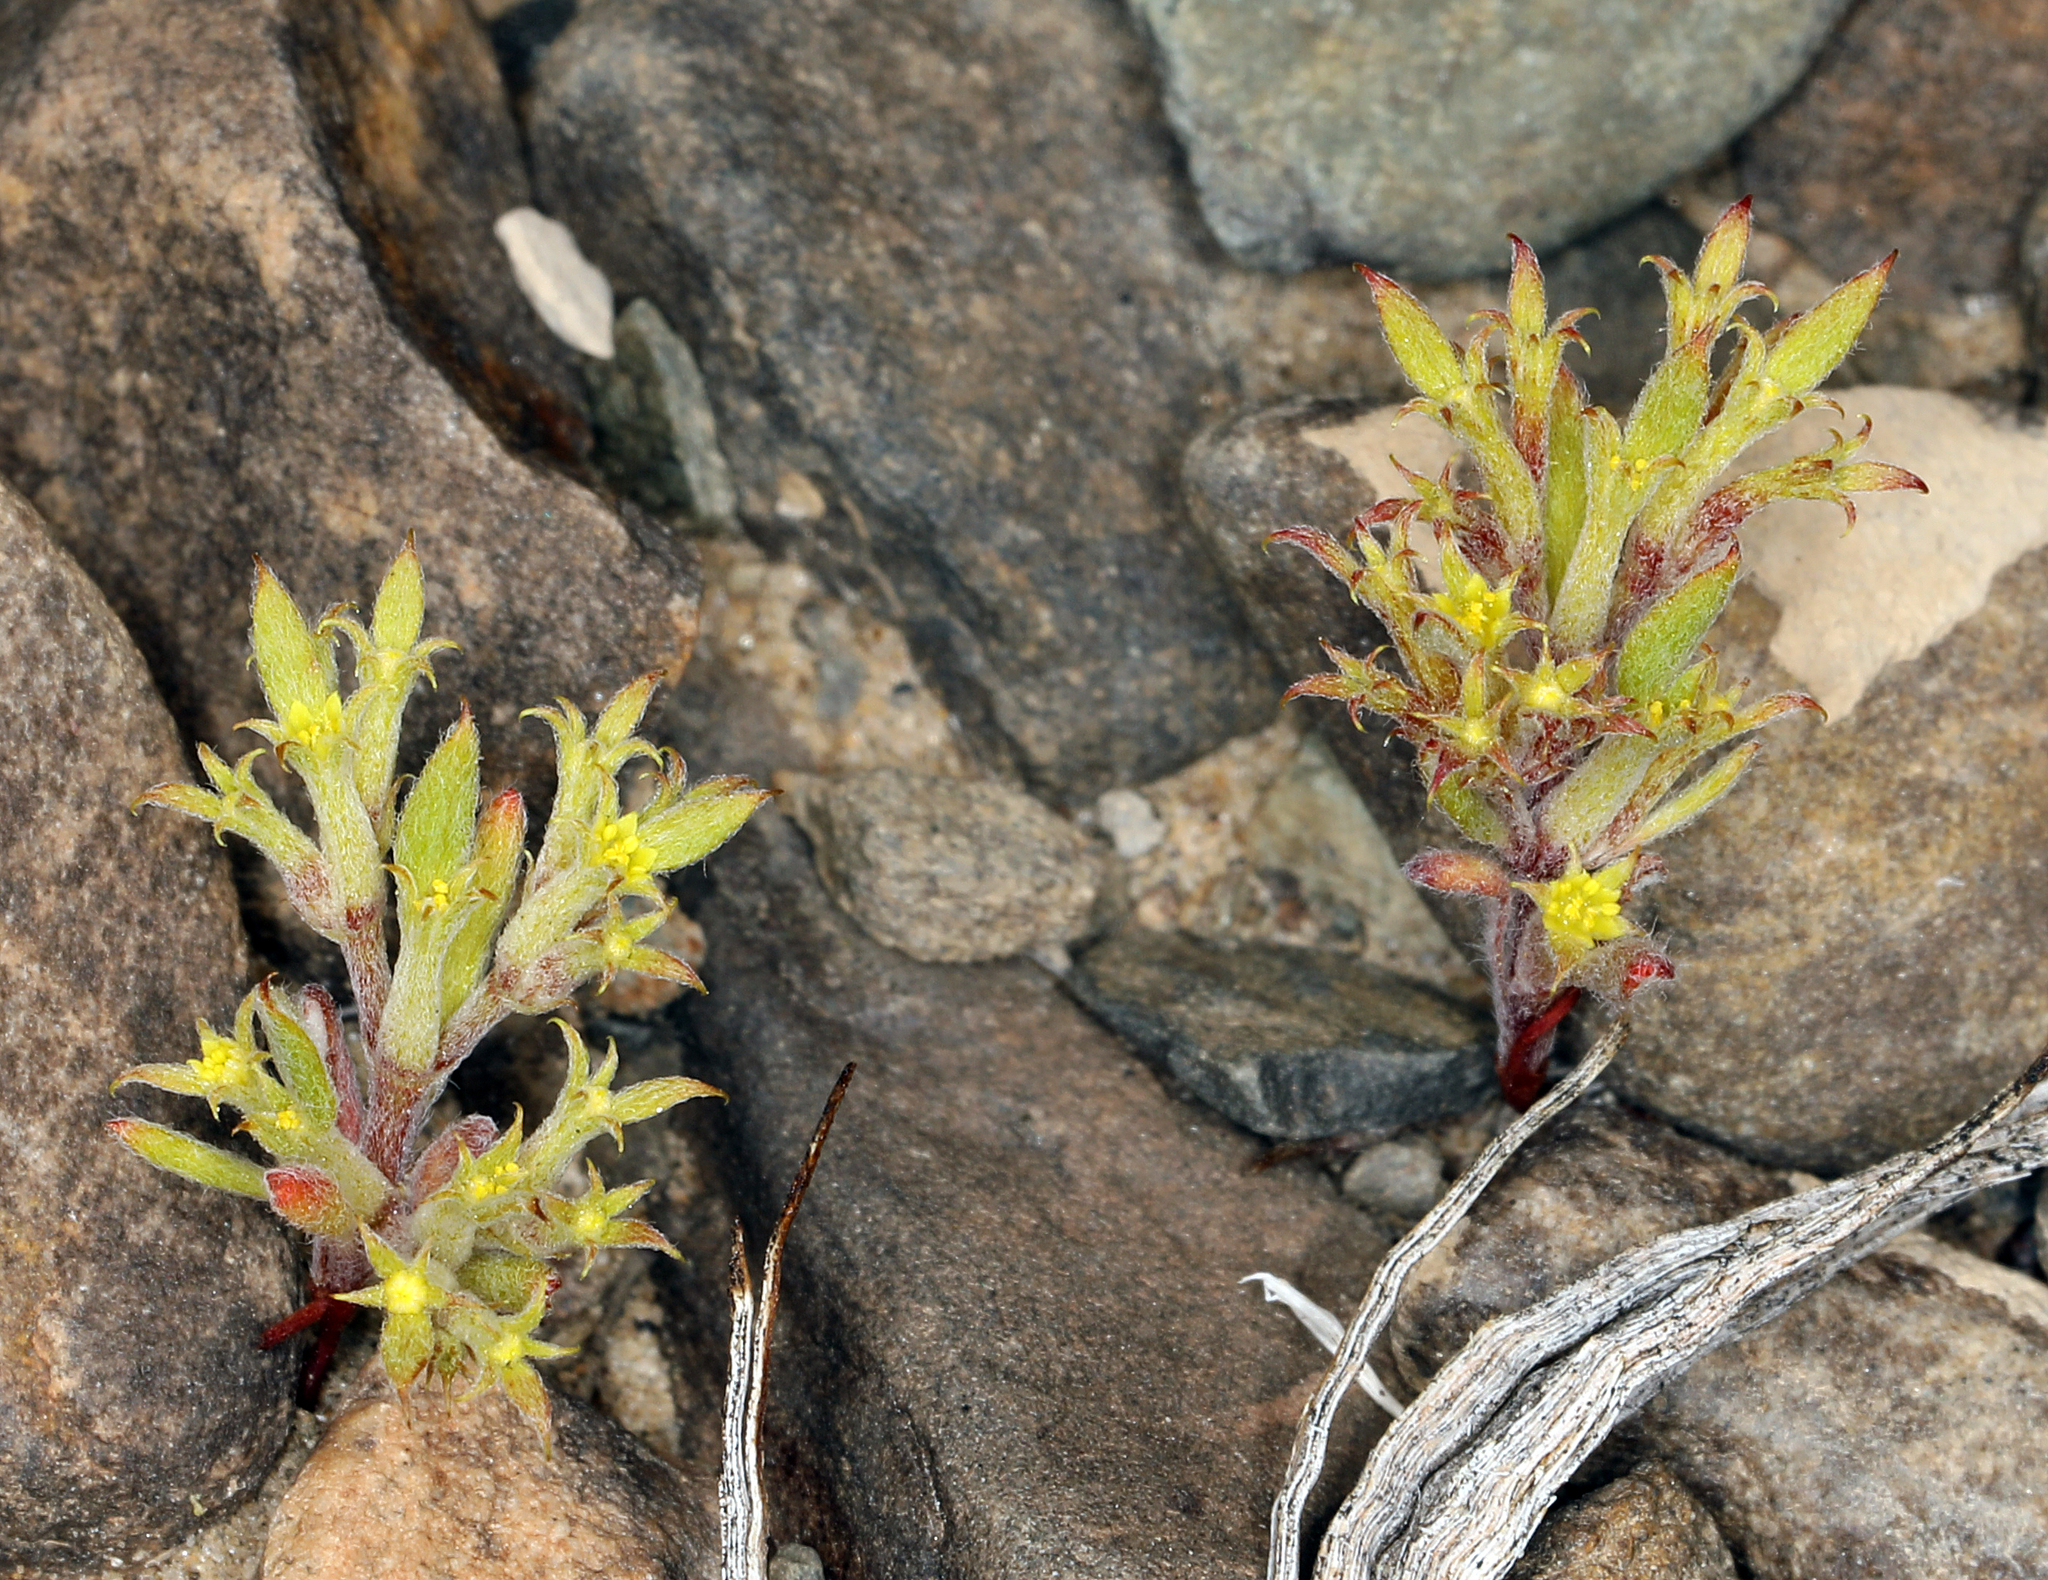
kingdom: Plantae
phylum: Tracheophyta
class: Magnoliopsida
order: Caryophyllales
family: Polygonaceae
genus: Chorizanthe
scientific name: Chorizanthe watsonii
